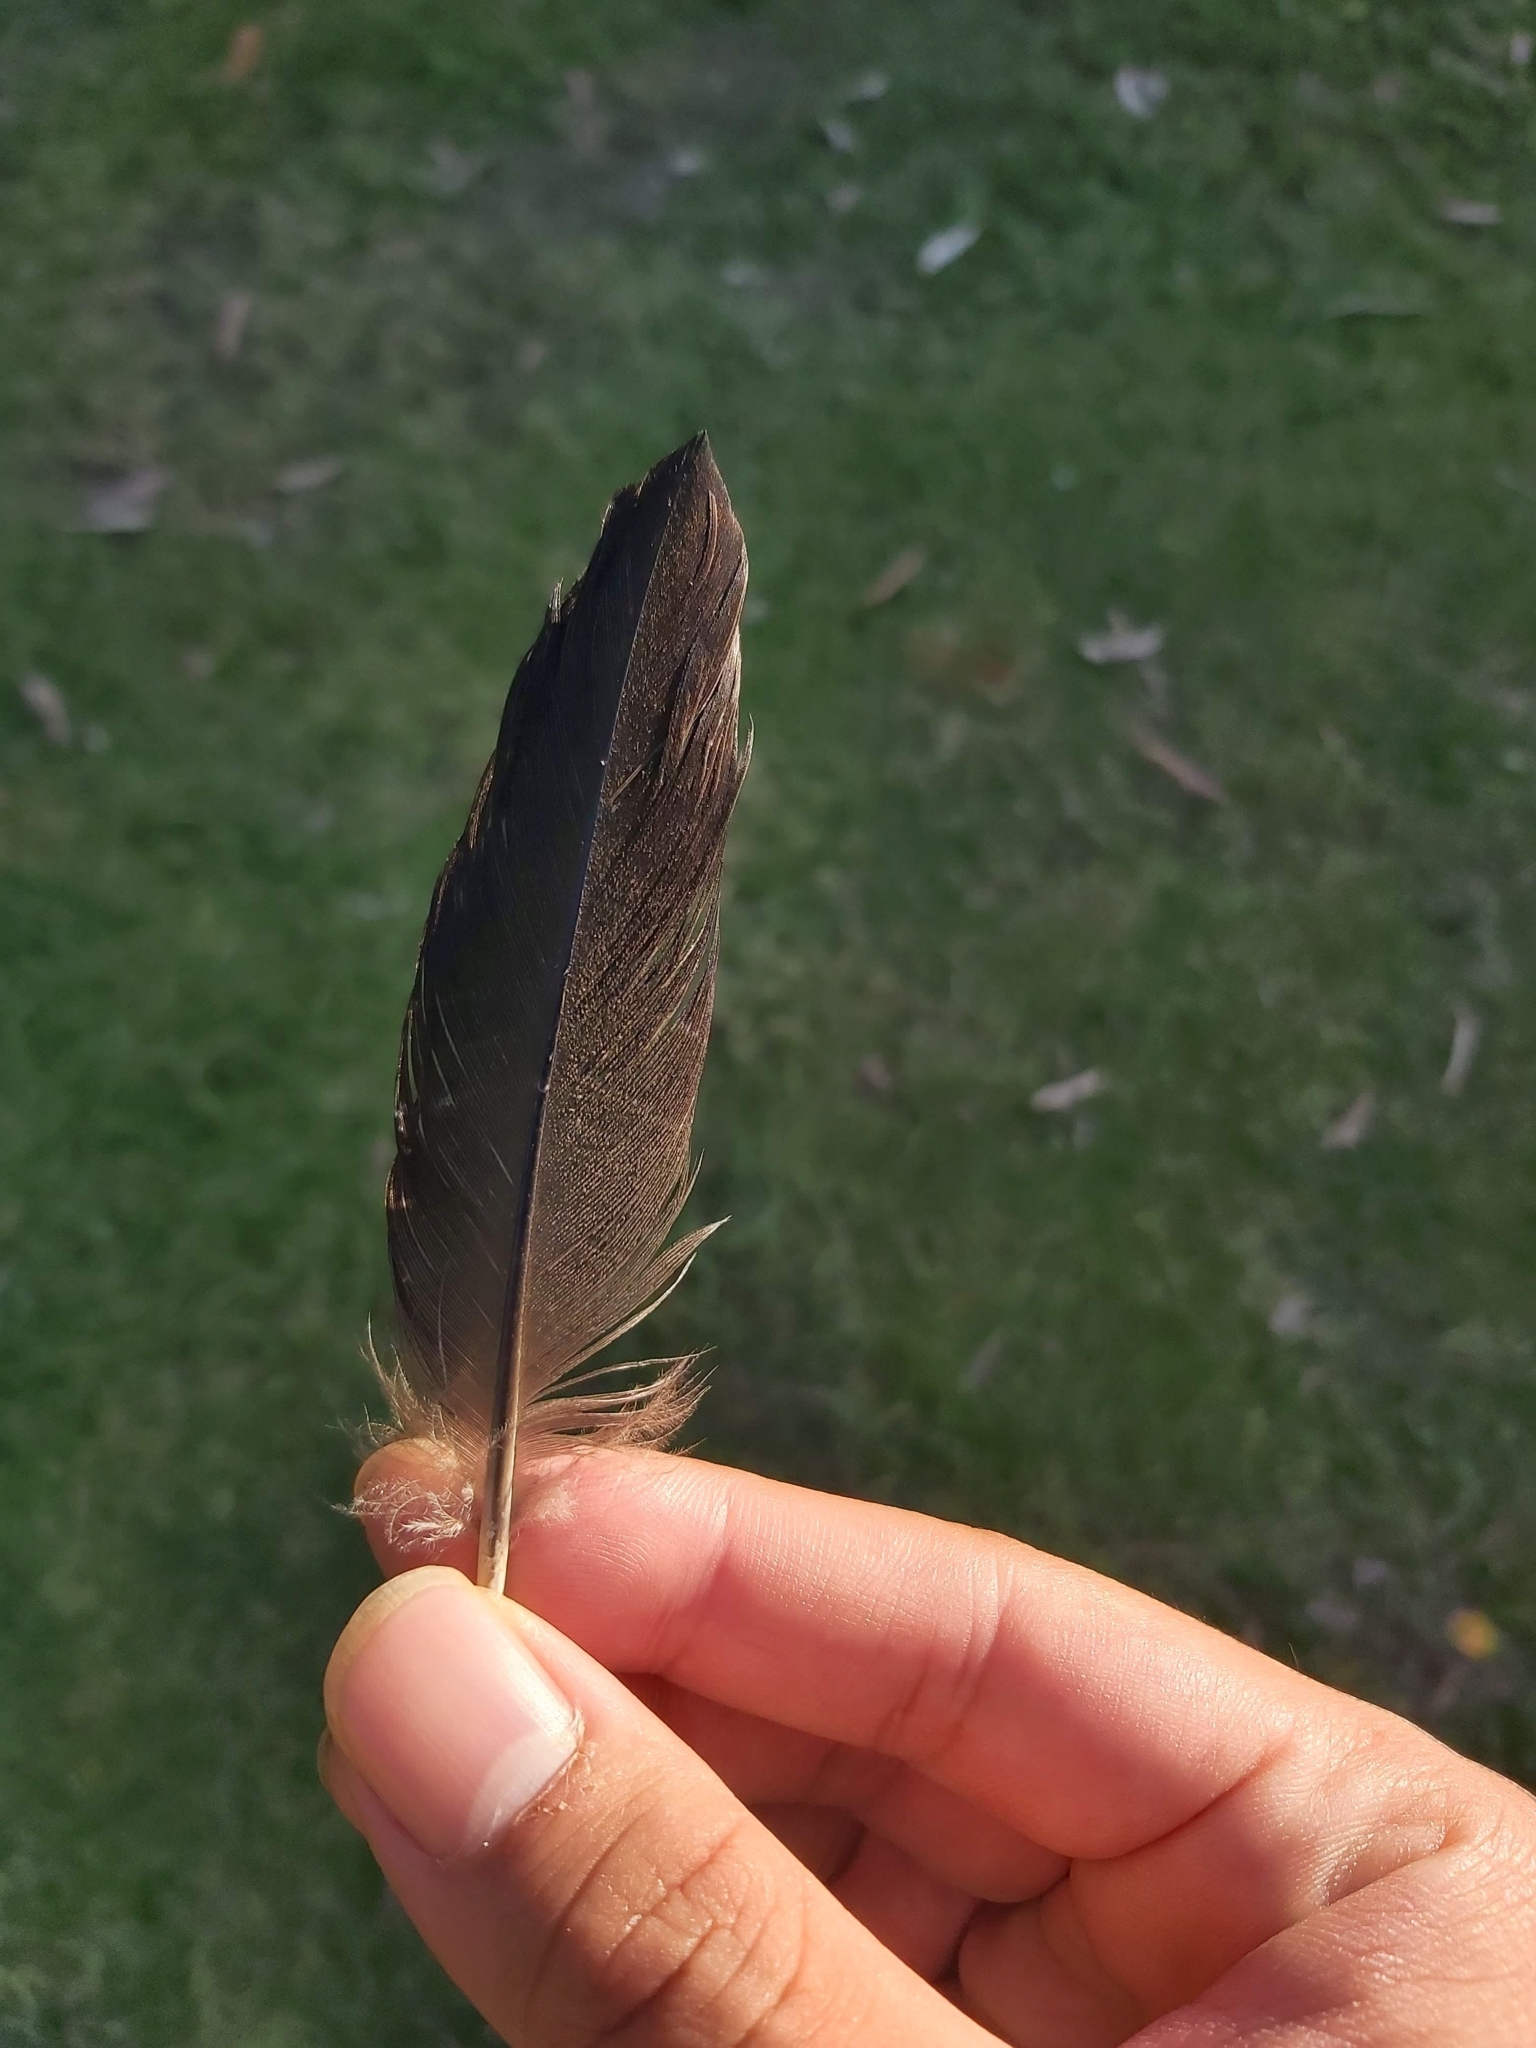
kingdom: Animalia
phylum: Chordata
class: Aves
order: Galliformes
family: Megapodiidae
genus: Alectura
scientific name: Alectura lathami
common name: Australian brushturkey
